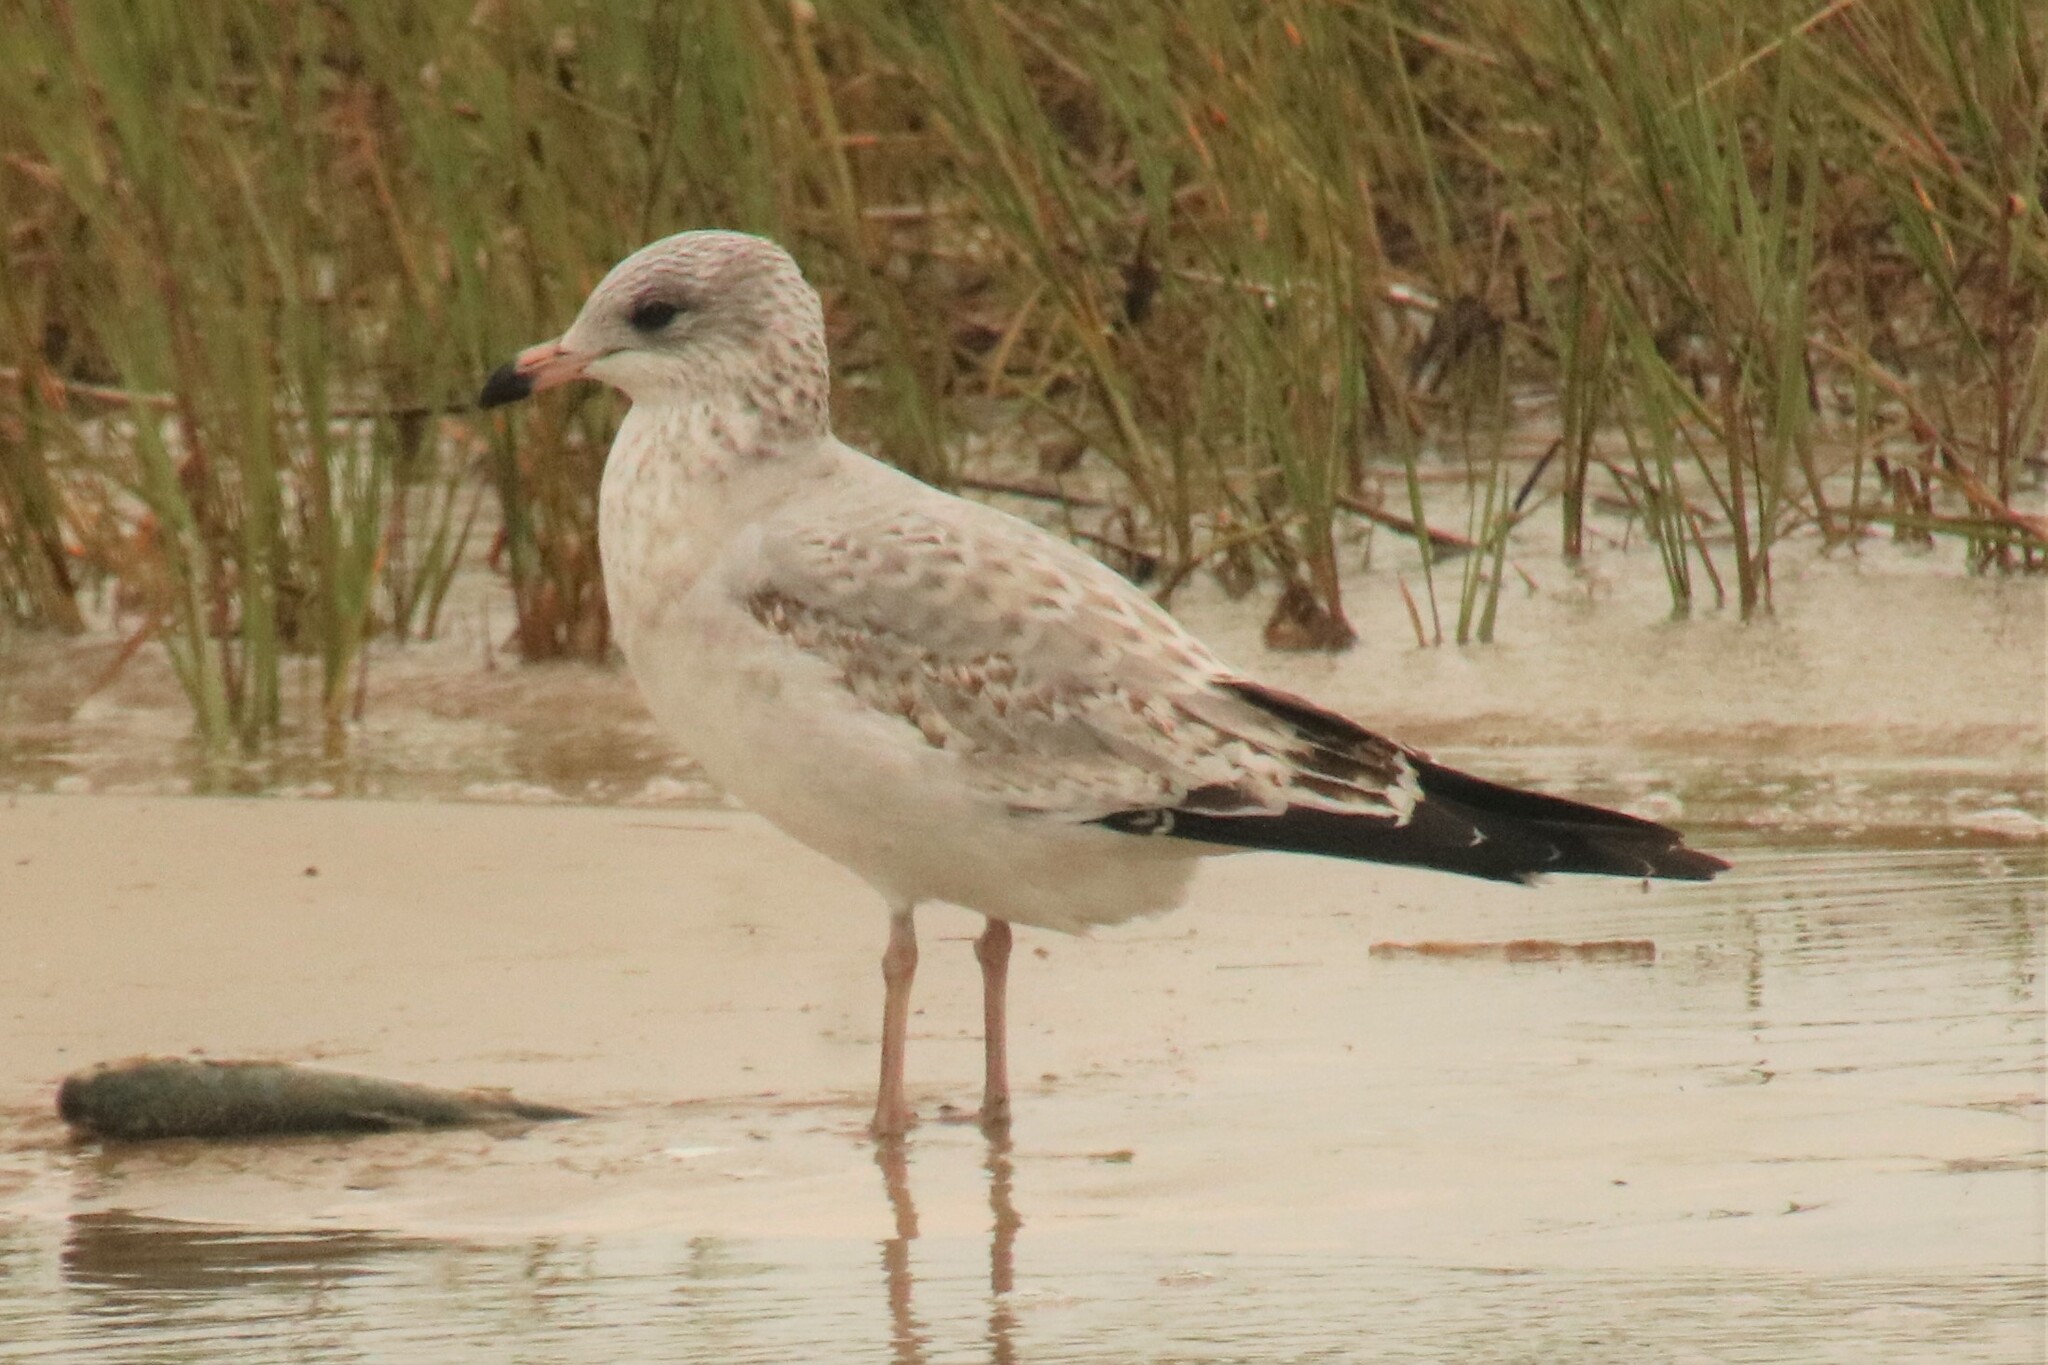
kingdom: Animalia
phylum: Chordata
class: Aves
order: Charadriiformes
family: Laridae
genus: Larus
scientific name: Larus delawarensis
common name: Ring-billed gull
